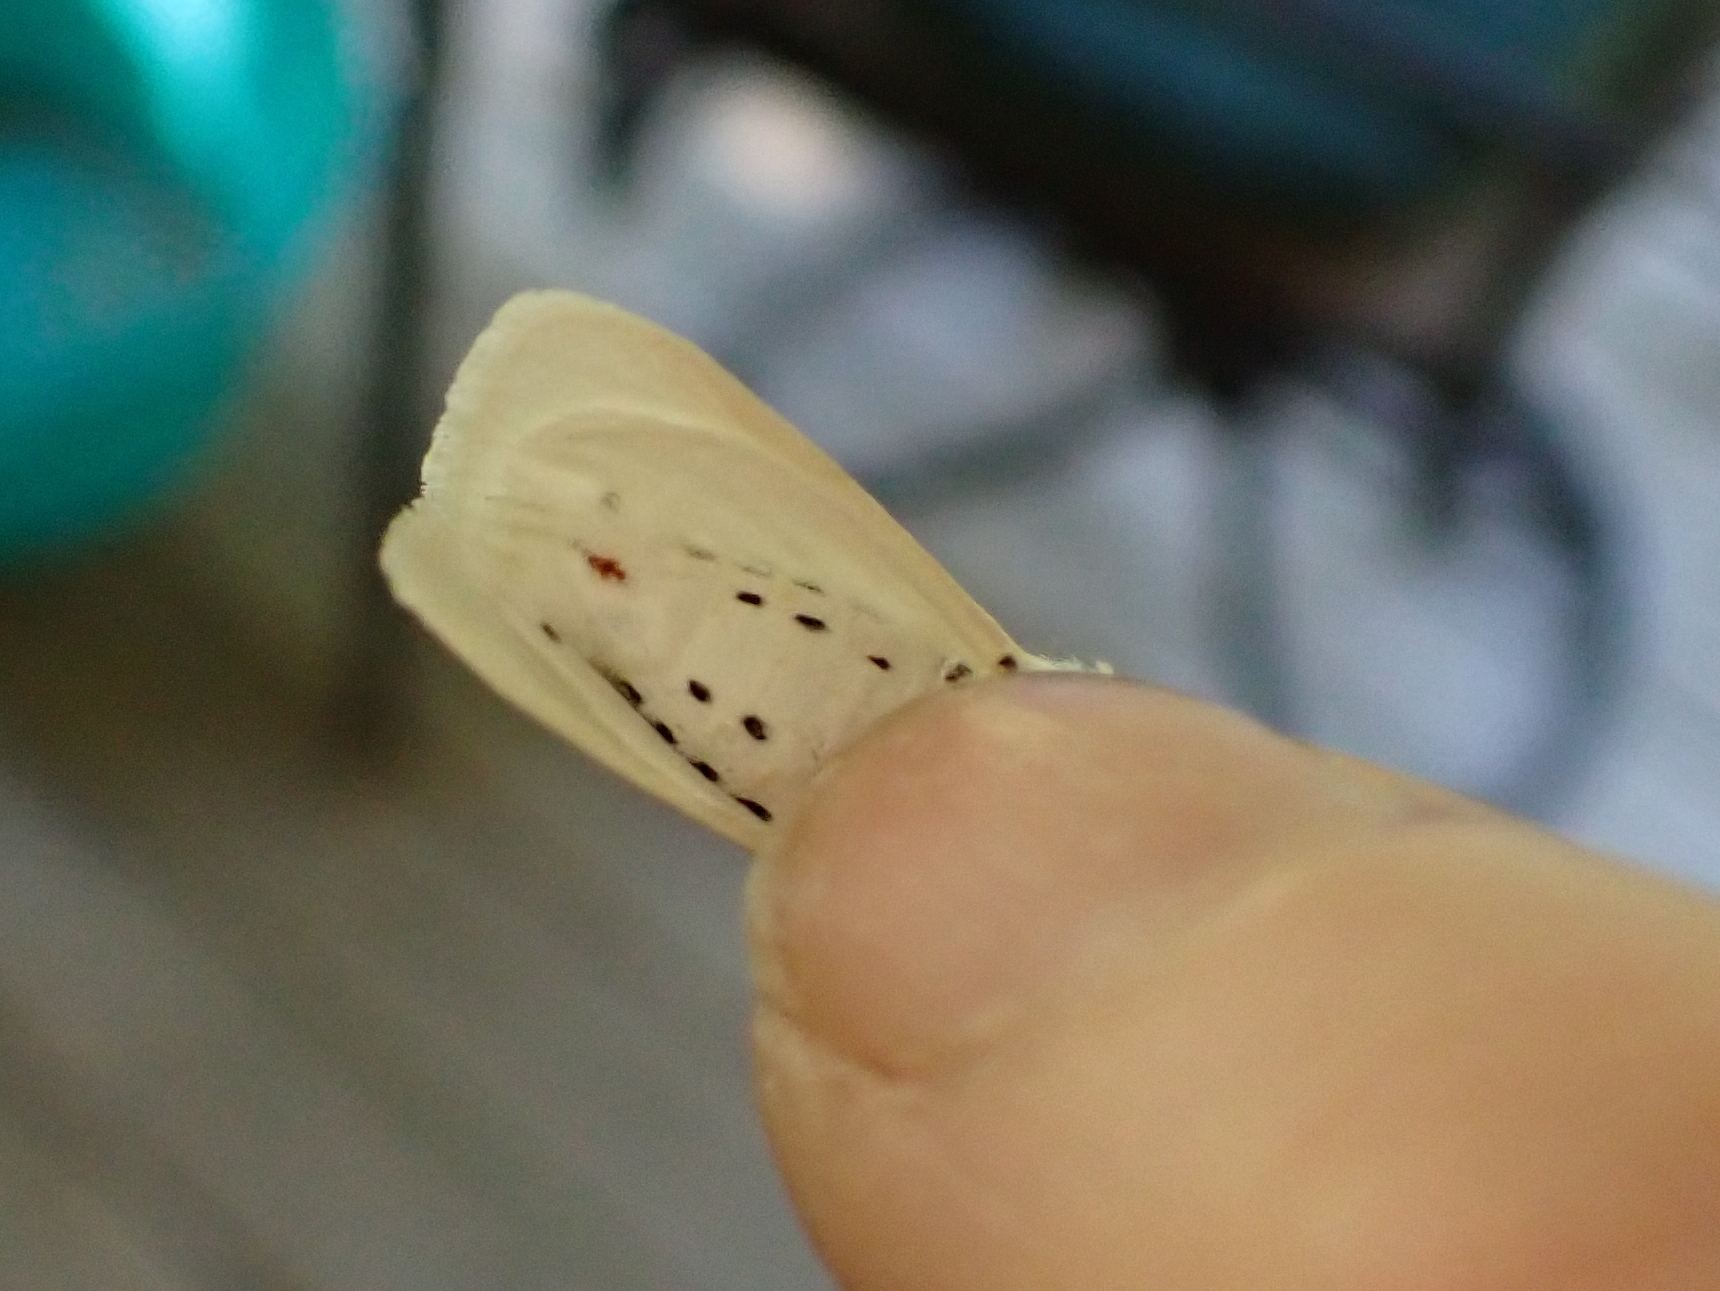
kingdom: Animalia
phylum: Arthropoda
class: Insecta
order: Lepidoptera
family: Erebidae
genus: Spilosoma
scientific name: Spilosoma virginica
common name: Virginia tiger moth
